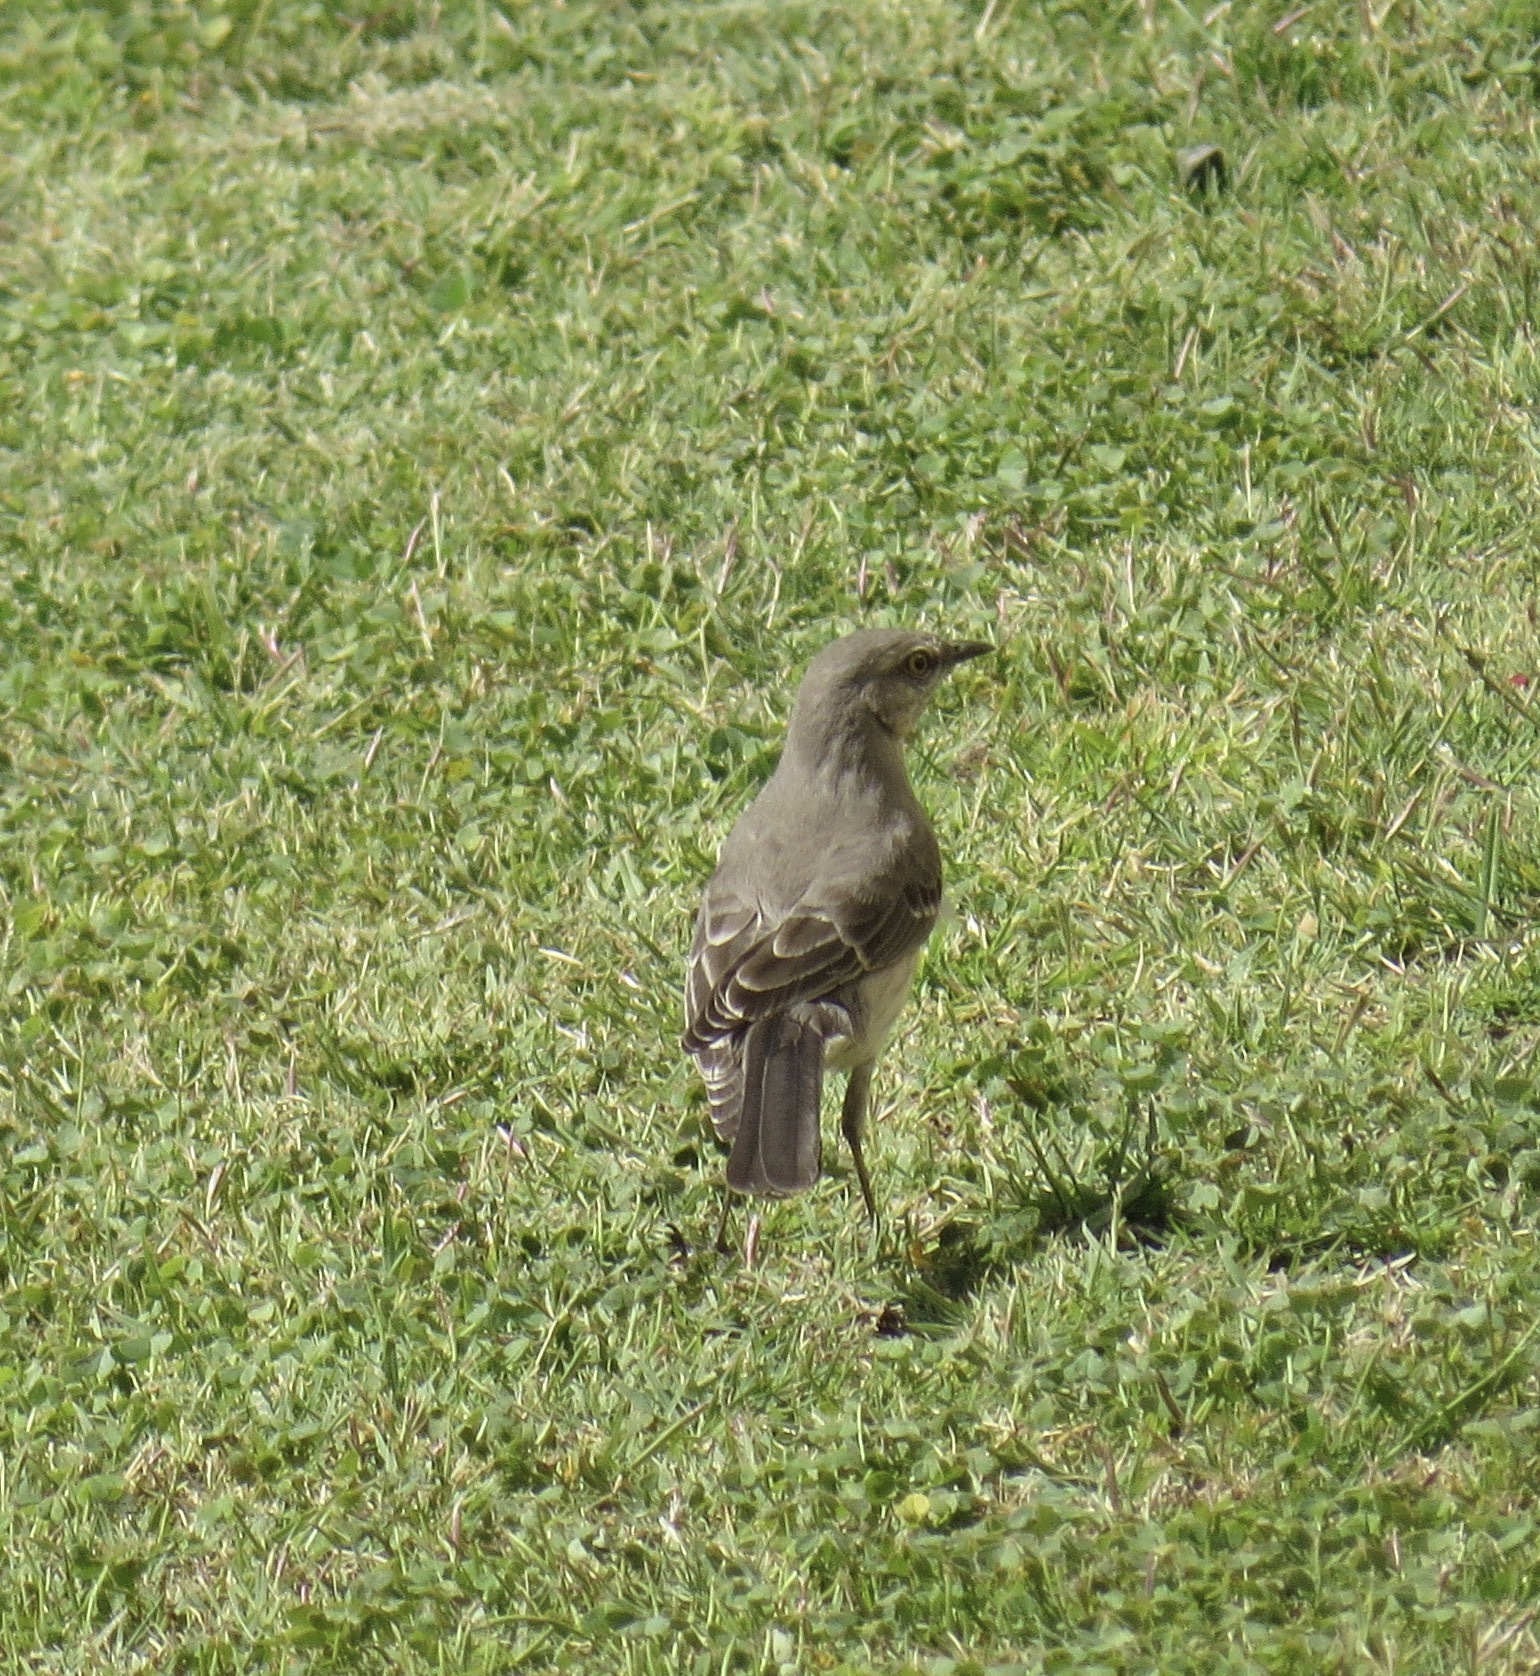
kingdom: Animalia
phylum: Chordata
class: Aves
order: Passeriformes
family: Mimidae
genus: Mimus
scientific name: Mimus polyglottos
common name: Northern mockingbird
